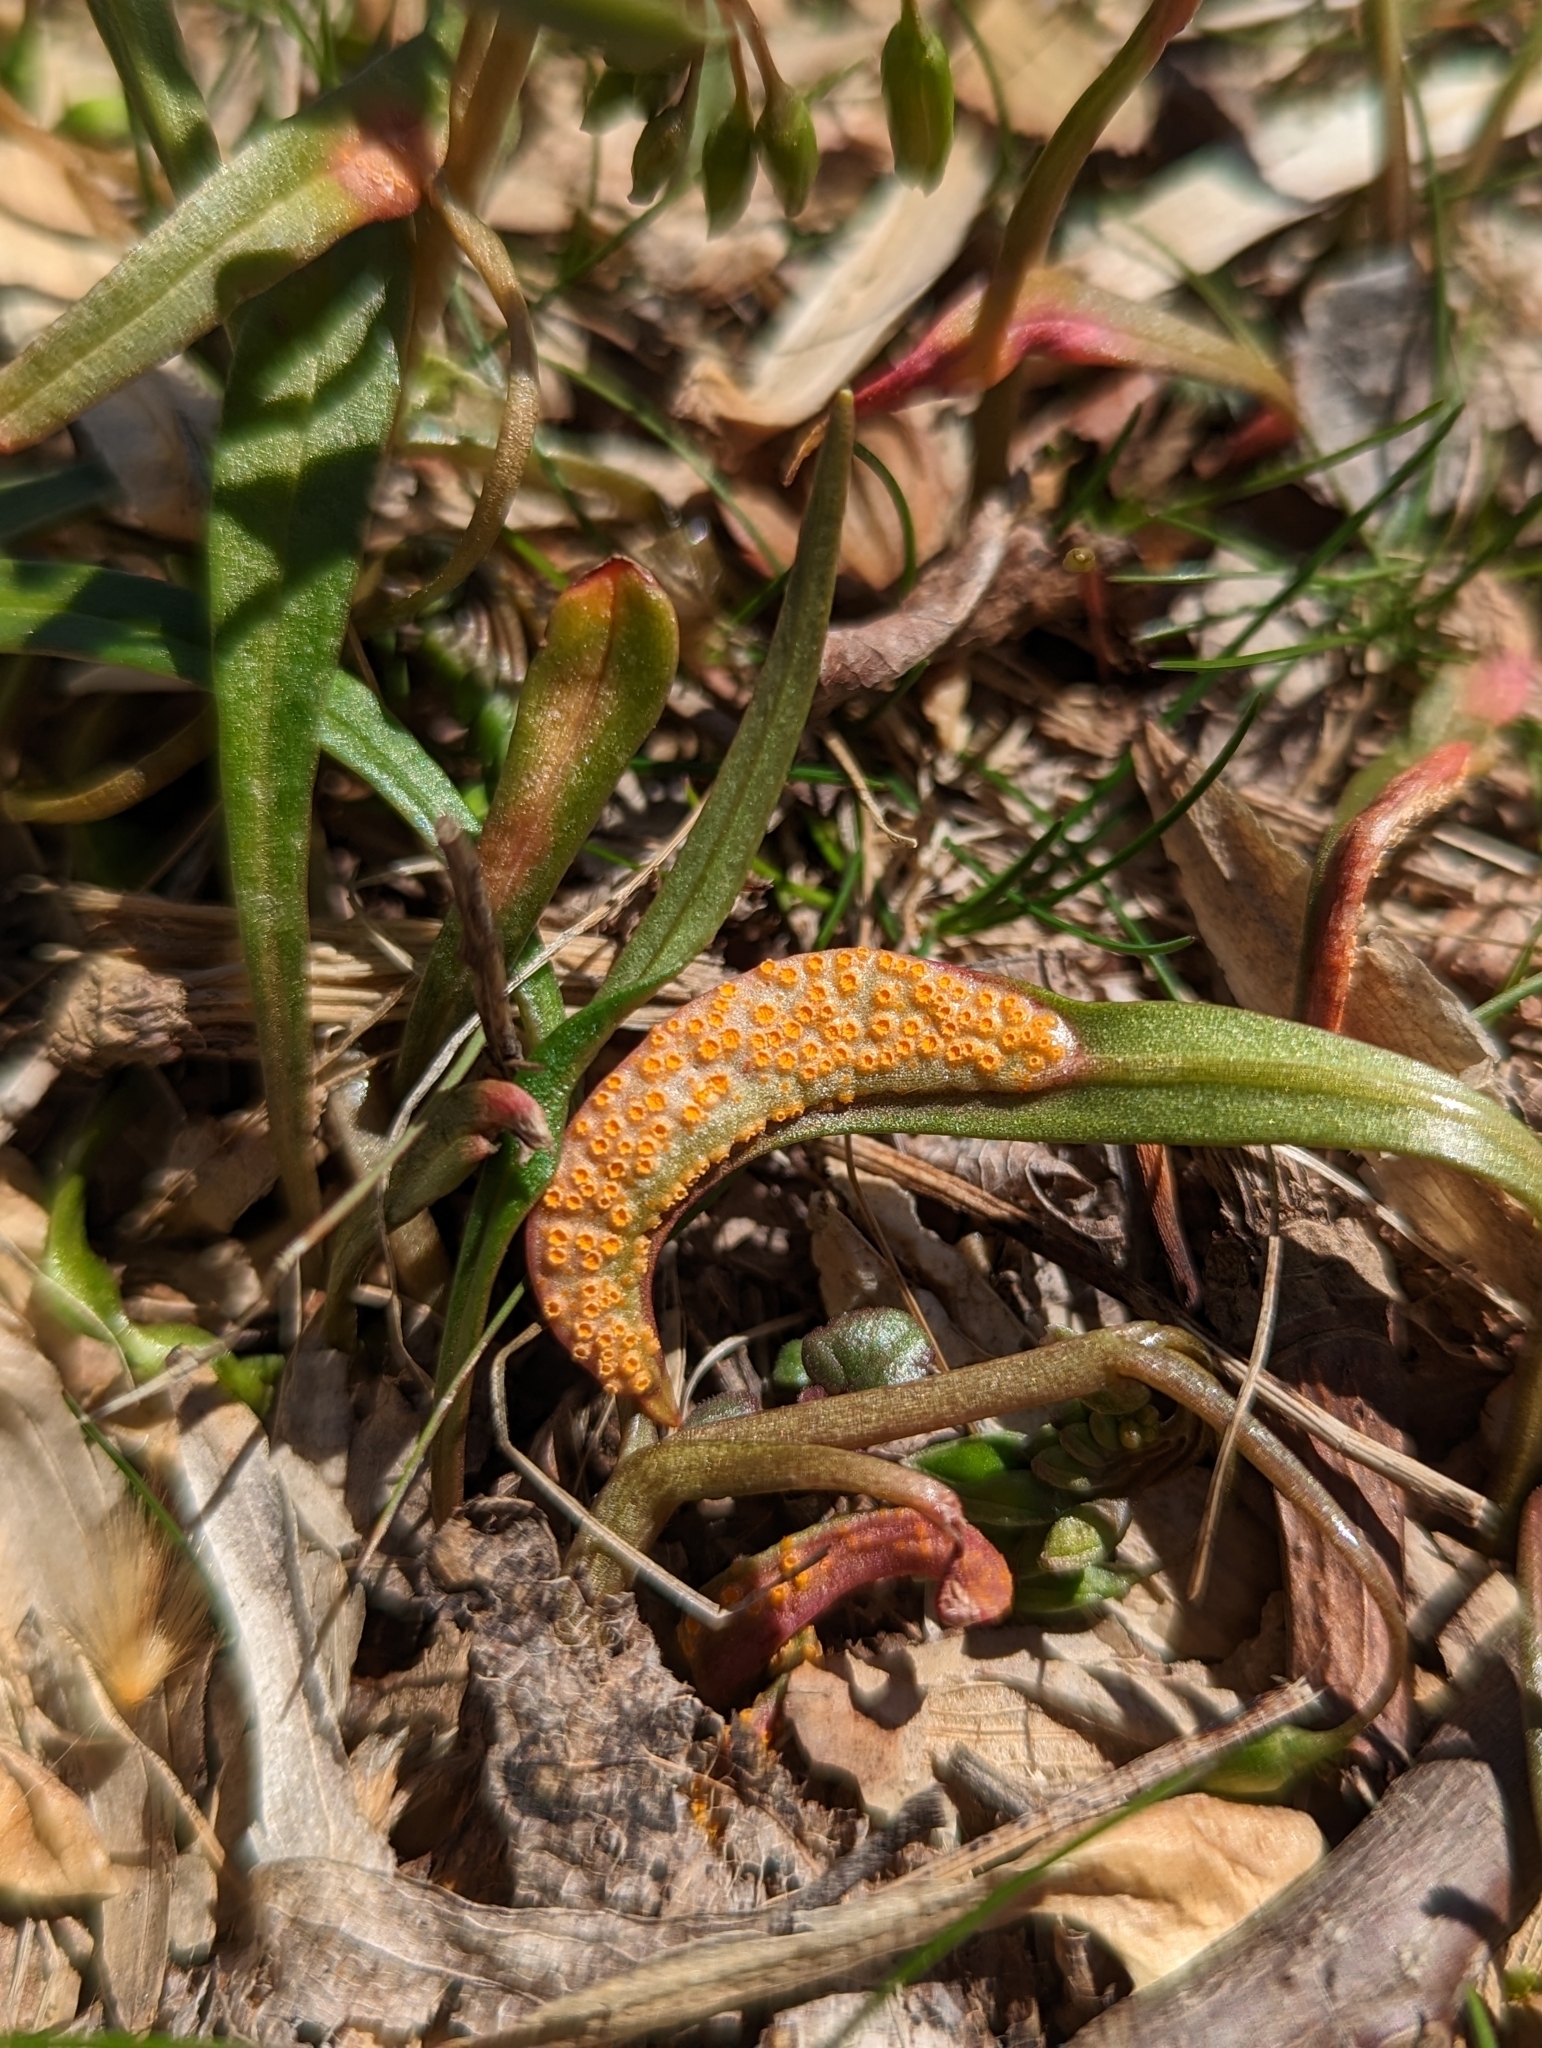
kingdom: Fungi
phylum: Basidiomycota
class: Pucciniomycetes
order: Pucciniales
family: Pucciniaceae
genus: Puccinia
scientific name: Puccinia mariae-wilsoniae
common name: Spring beauty rust
